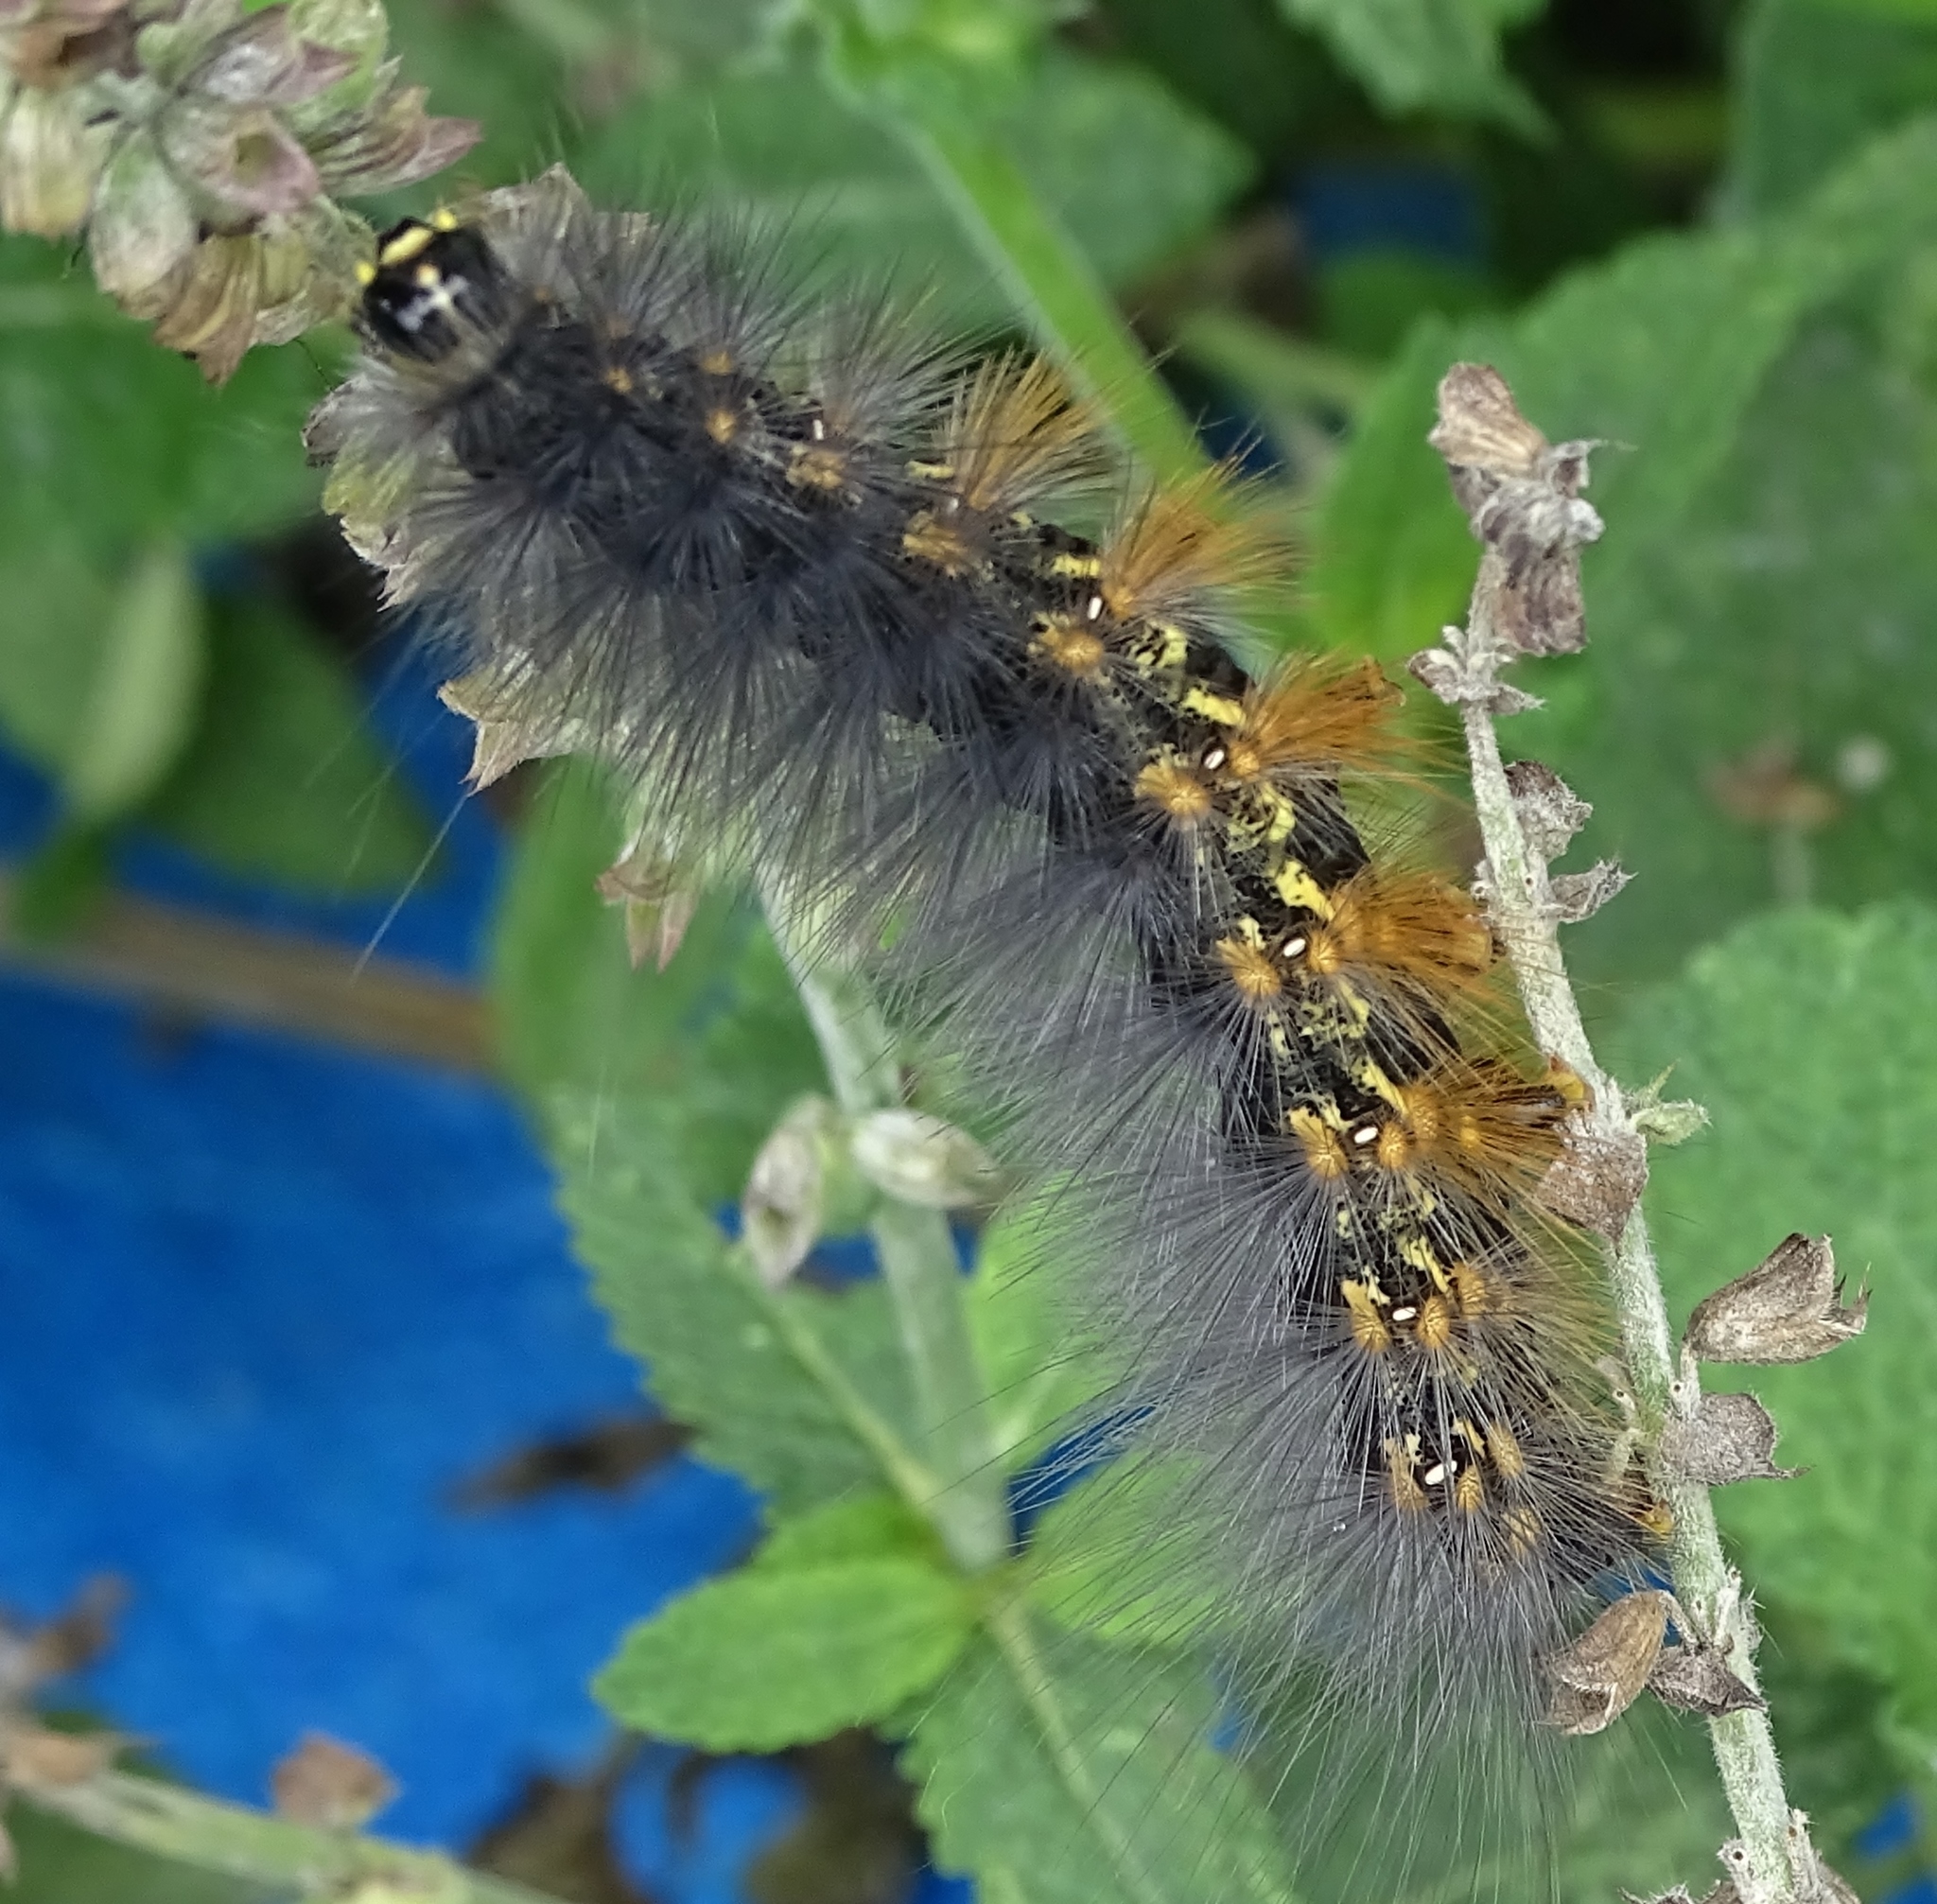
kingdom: Animalia
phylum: Arthropoda
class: Insecta
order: Lepidoptera
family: Erebidae
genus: Estigmene
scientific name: Estigmene acrea
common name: Salt marsh moth
